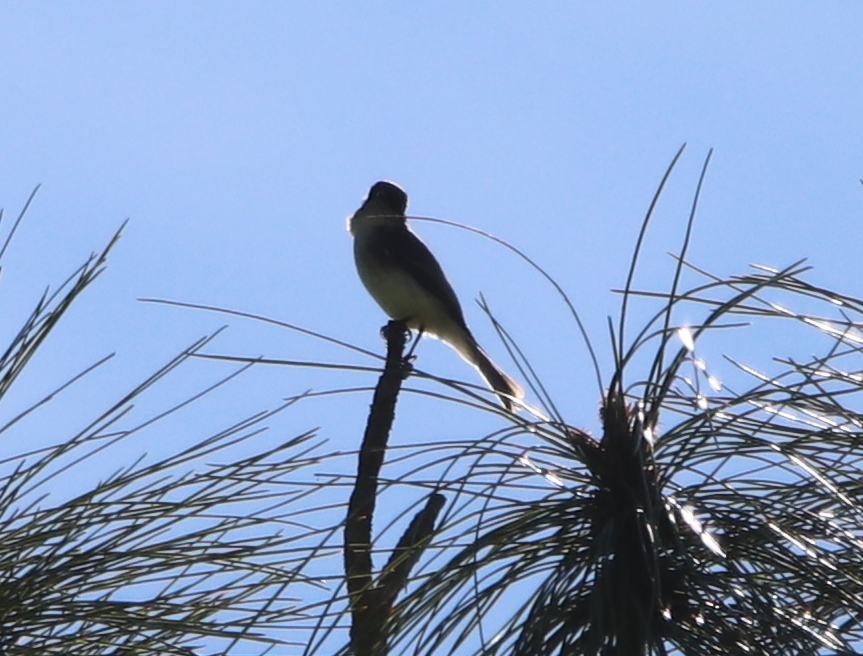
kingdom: Animalia
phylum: Chordata
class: Aves
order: Passeriformes
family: Tyrannidae
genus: Sayornis
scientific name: Sayornis phoebe
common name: Eastern phoebe
